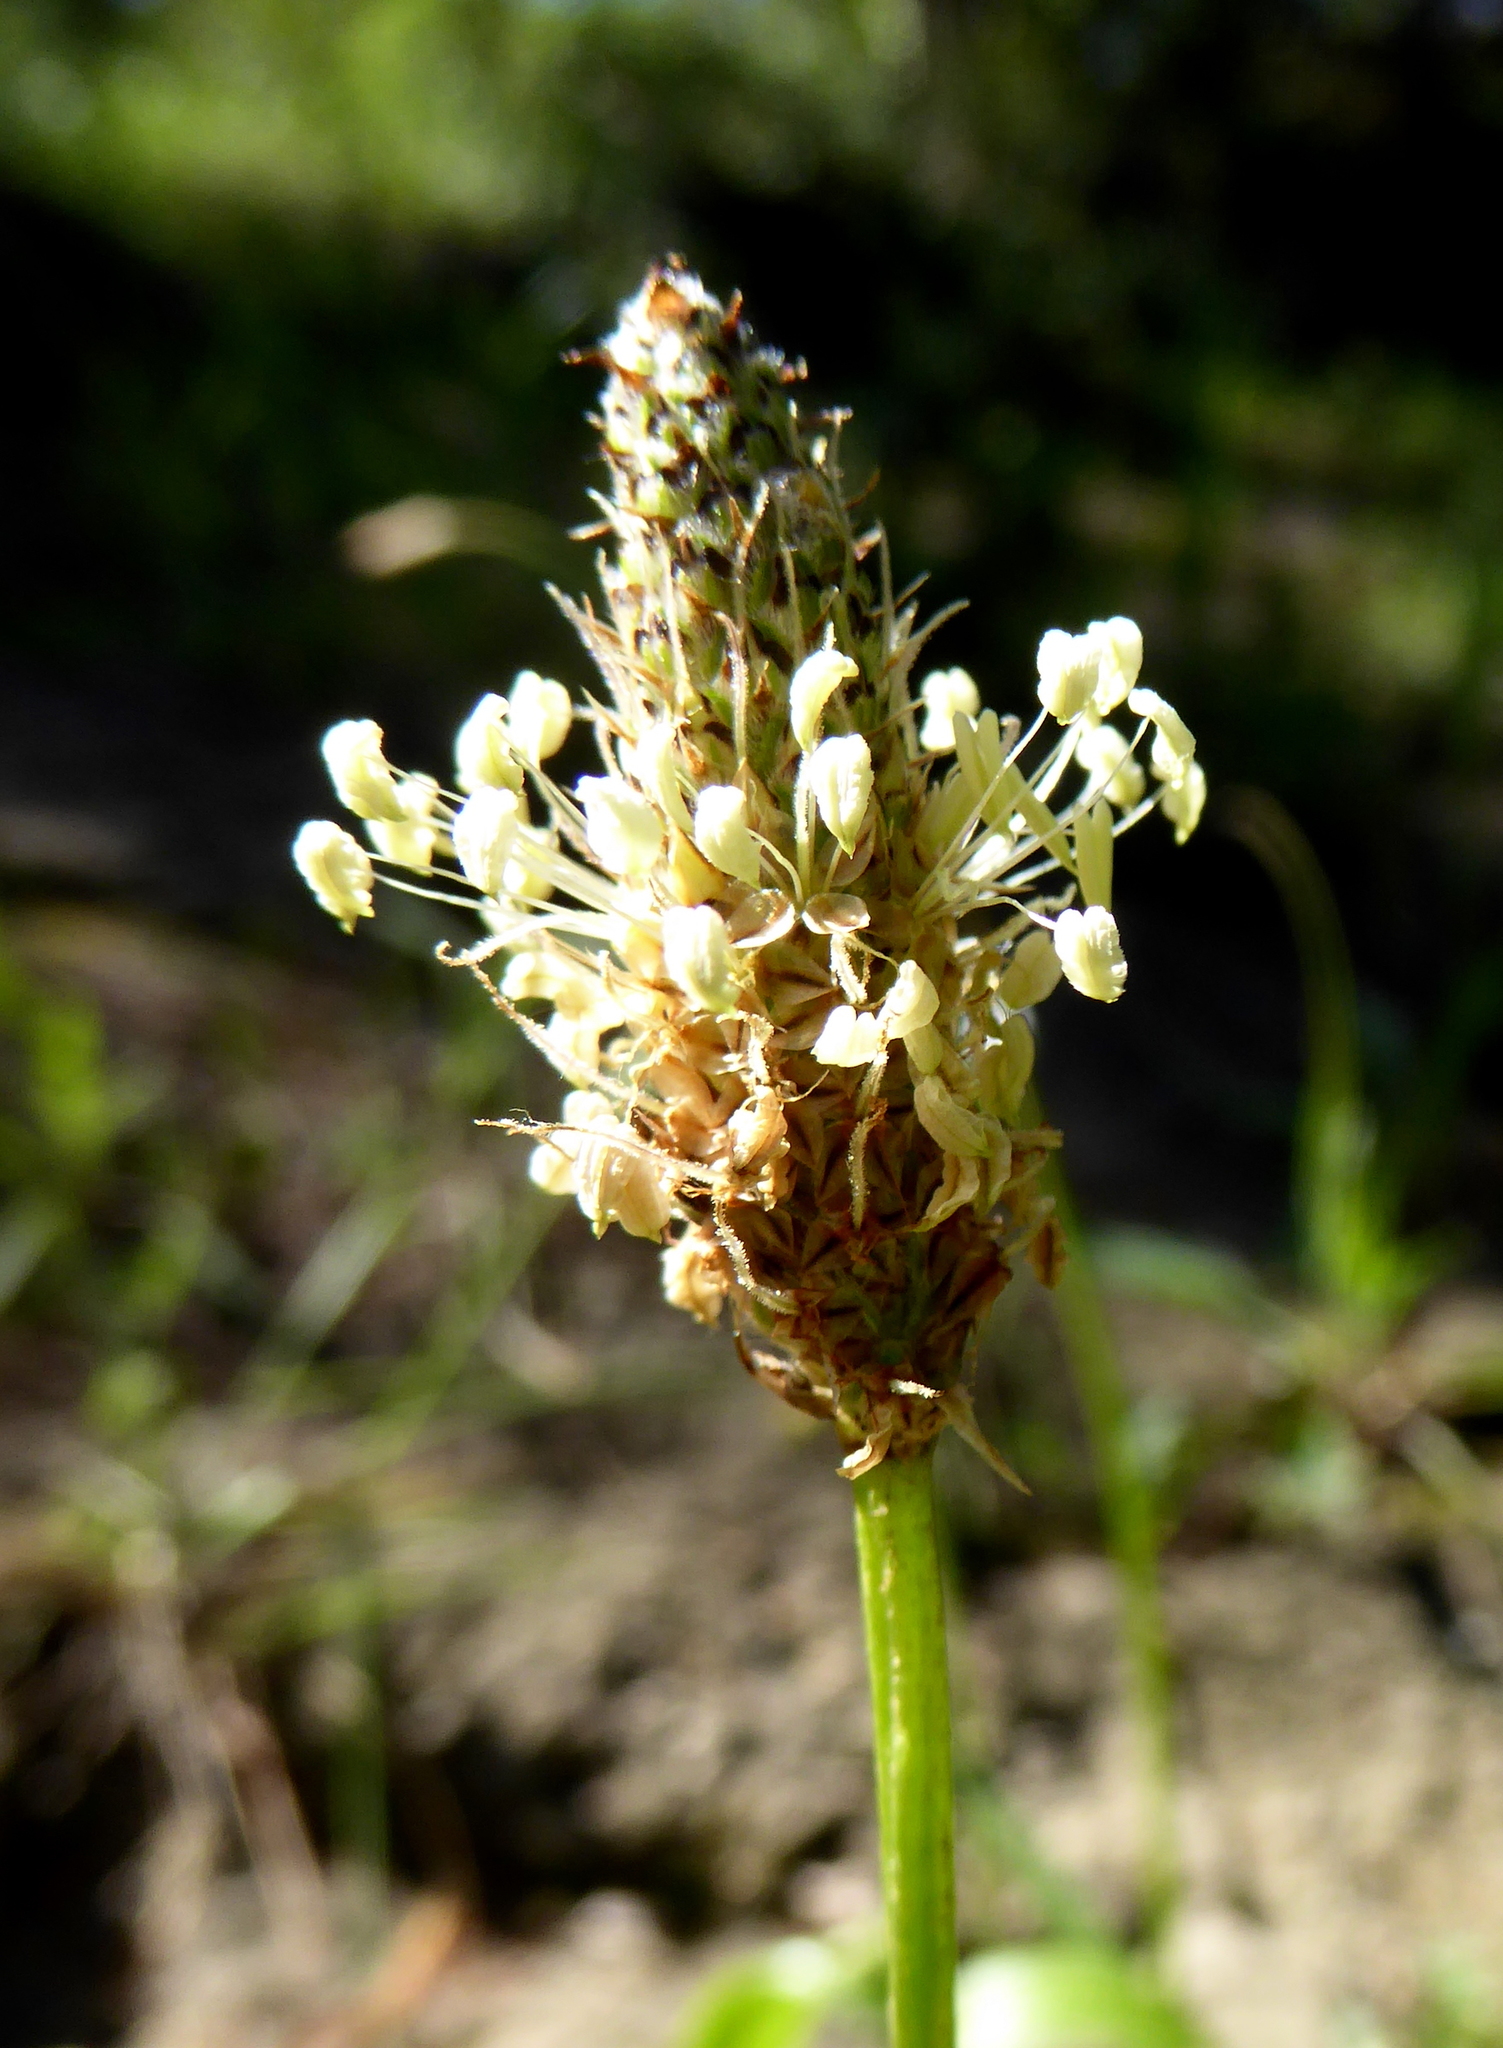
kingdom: Plantae
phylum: Tracheophyta
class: Magnoliopsida
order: Lamiales
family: Plantaginaceae
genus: Plantago
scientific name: Plantago lanceolata
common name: Ribwort plantain
